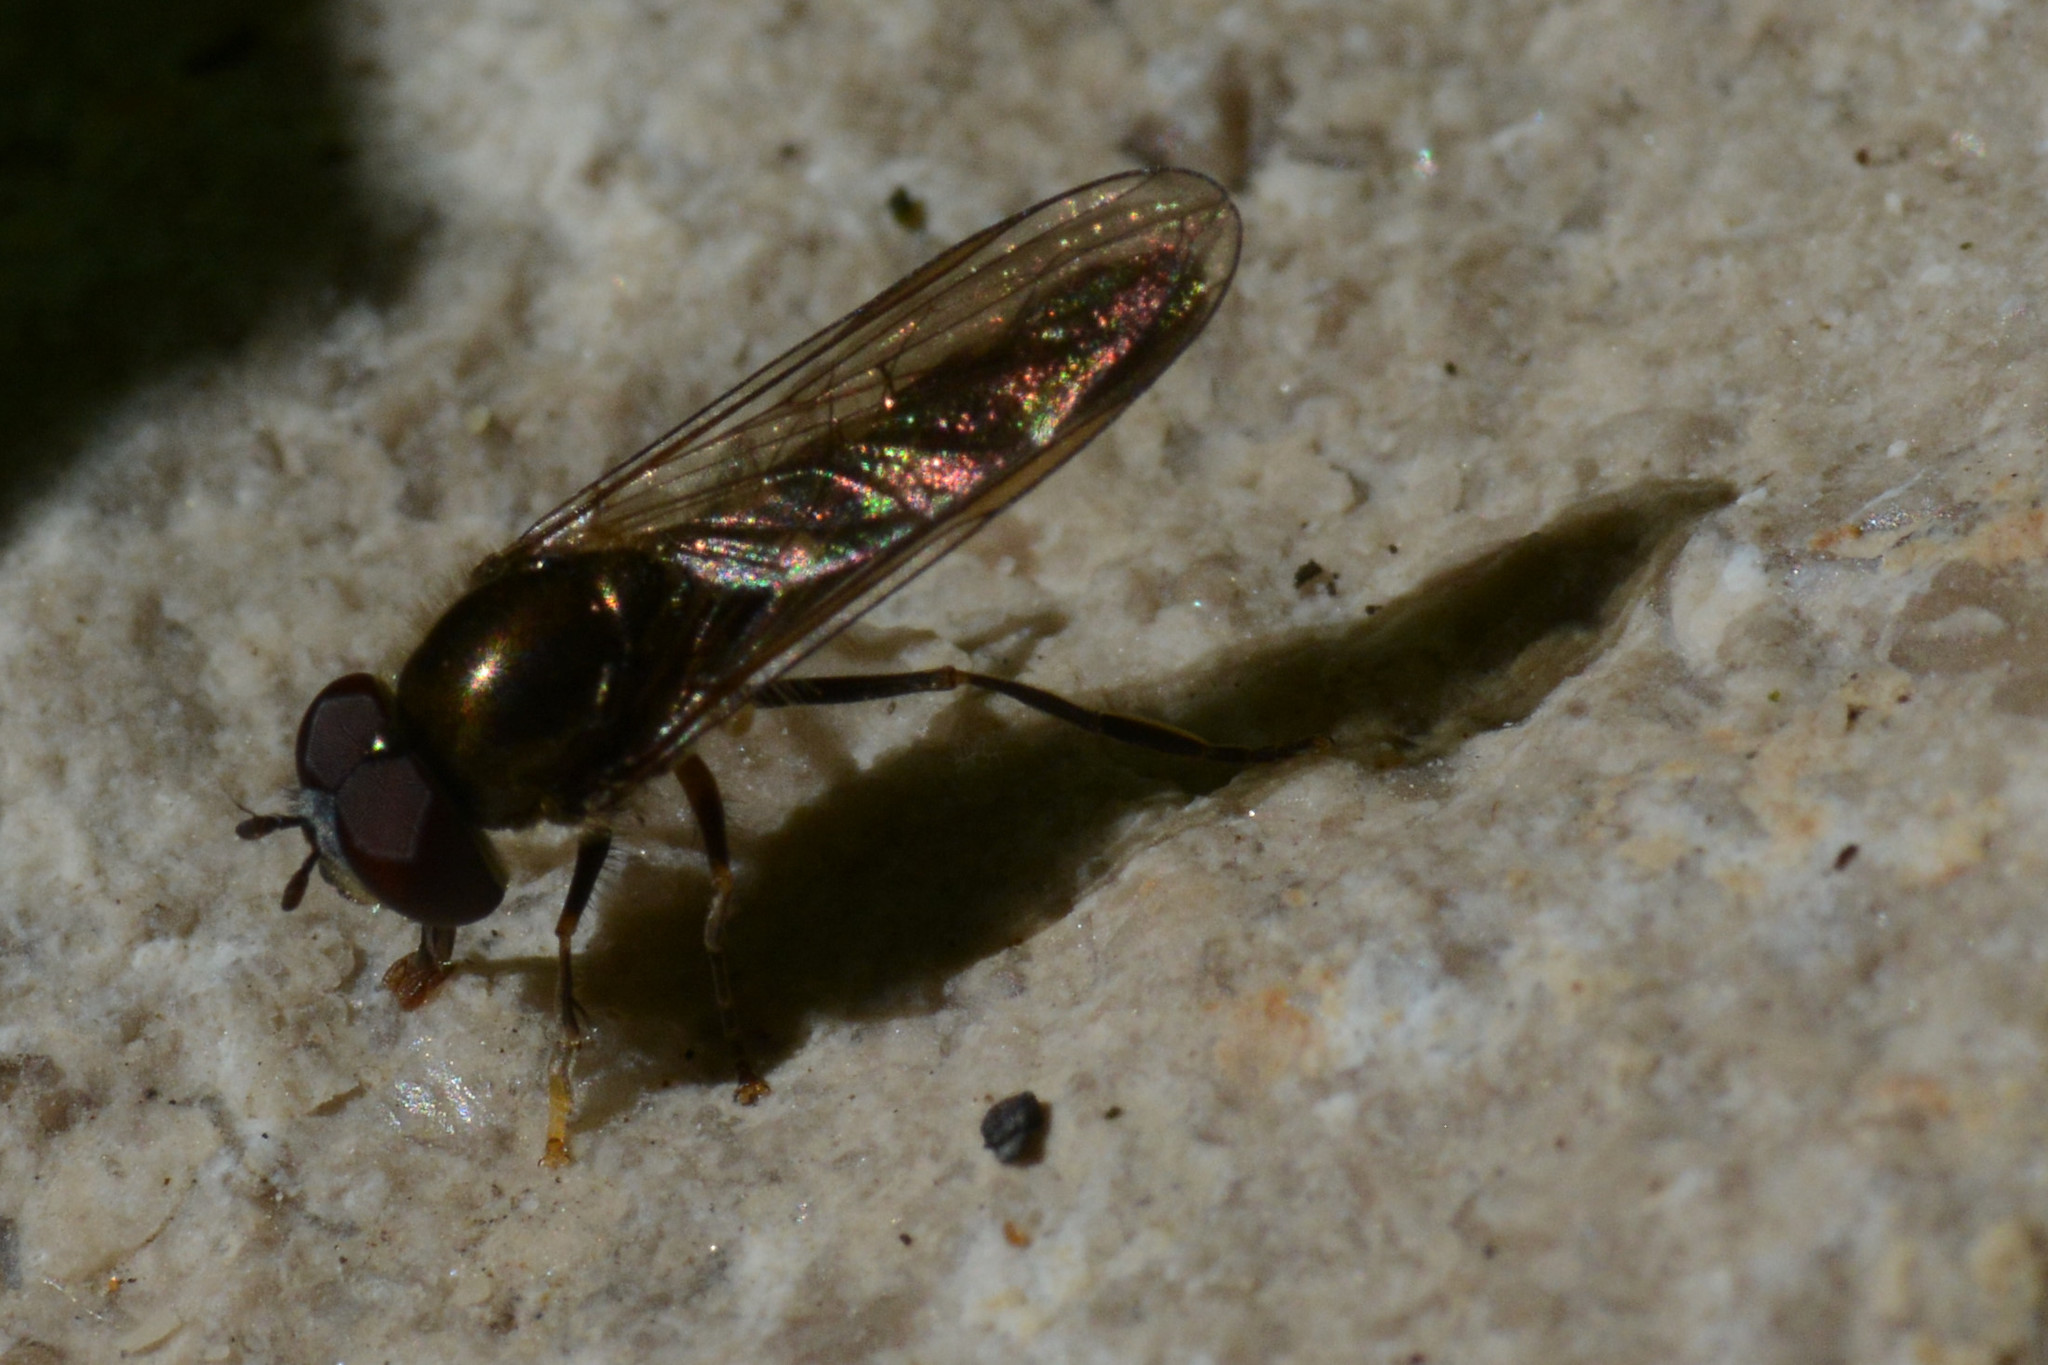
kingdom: Animalia
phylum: Arthropoda
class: Insecta
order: Diptera
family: Syrphidae
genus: Platycheirus
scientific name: Platycheirus scutatus
